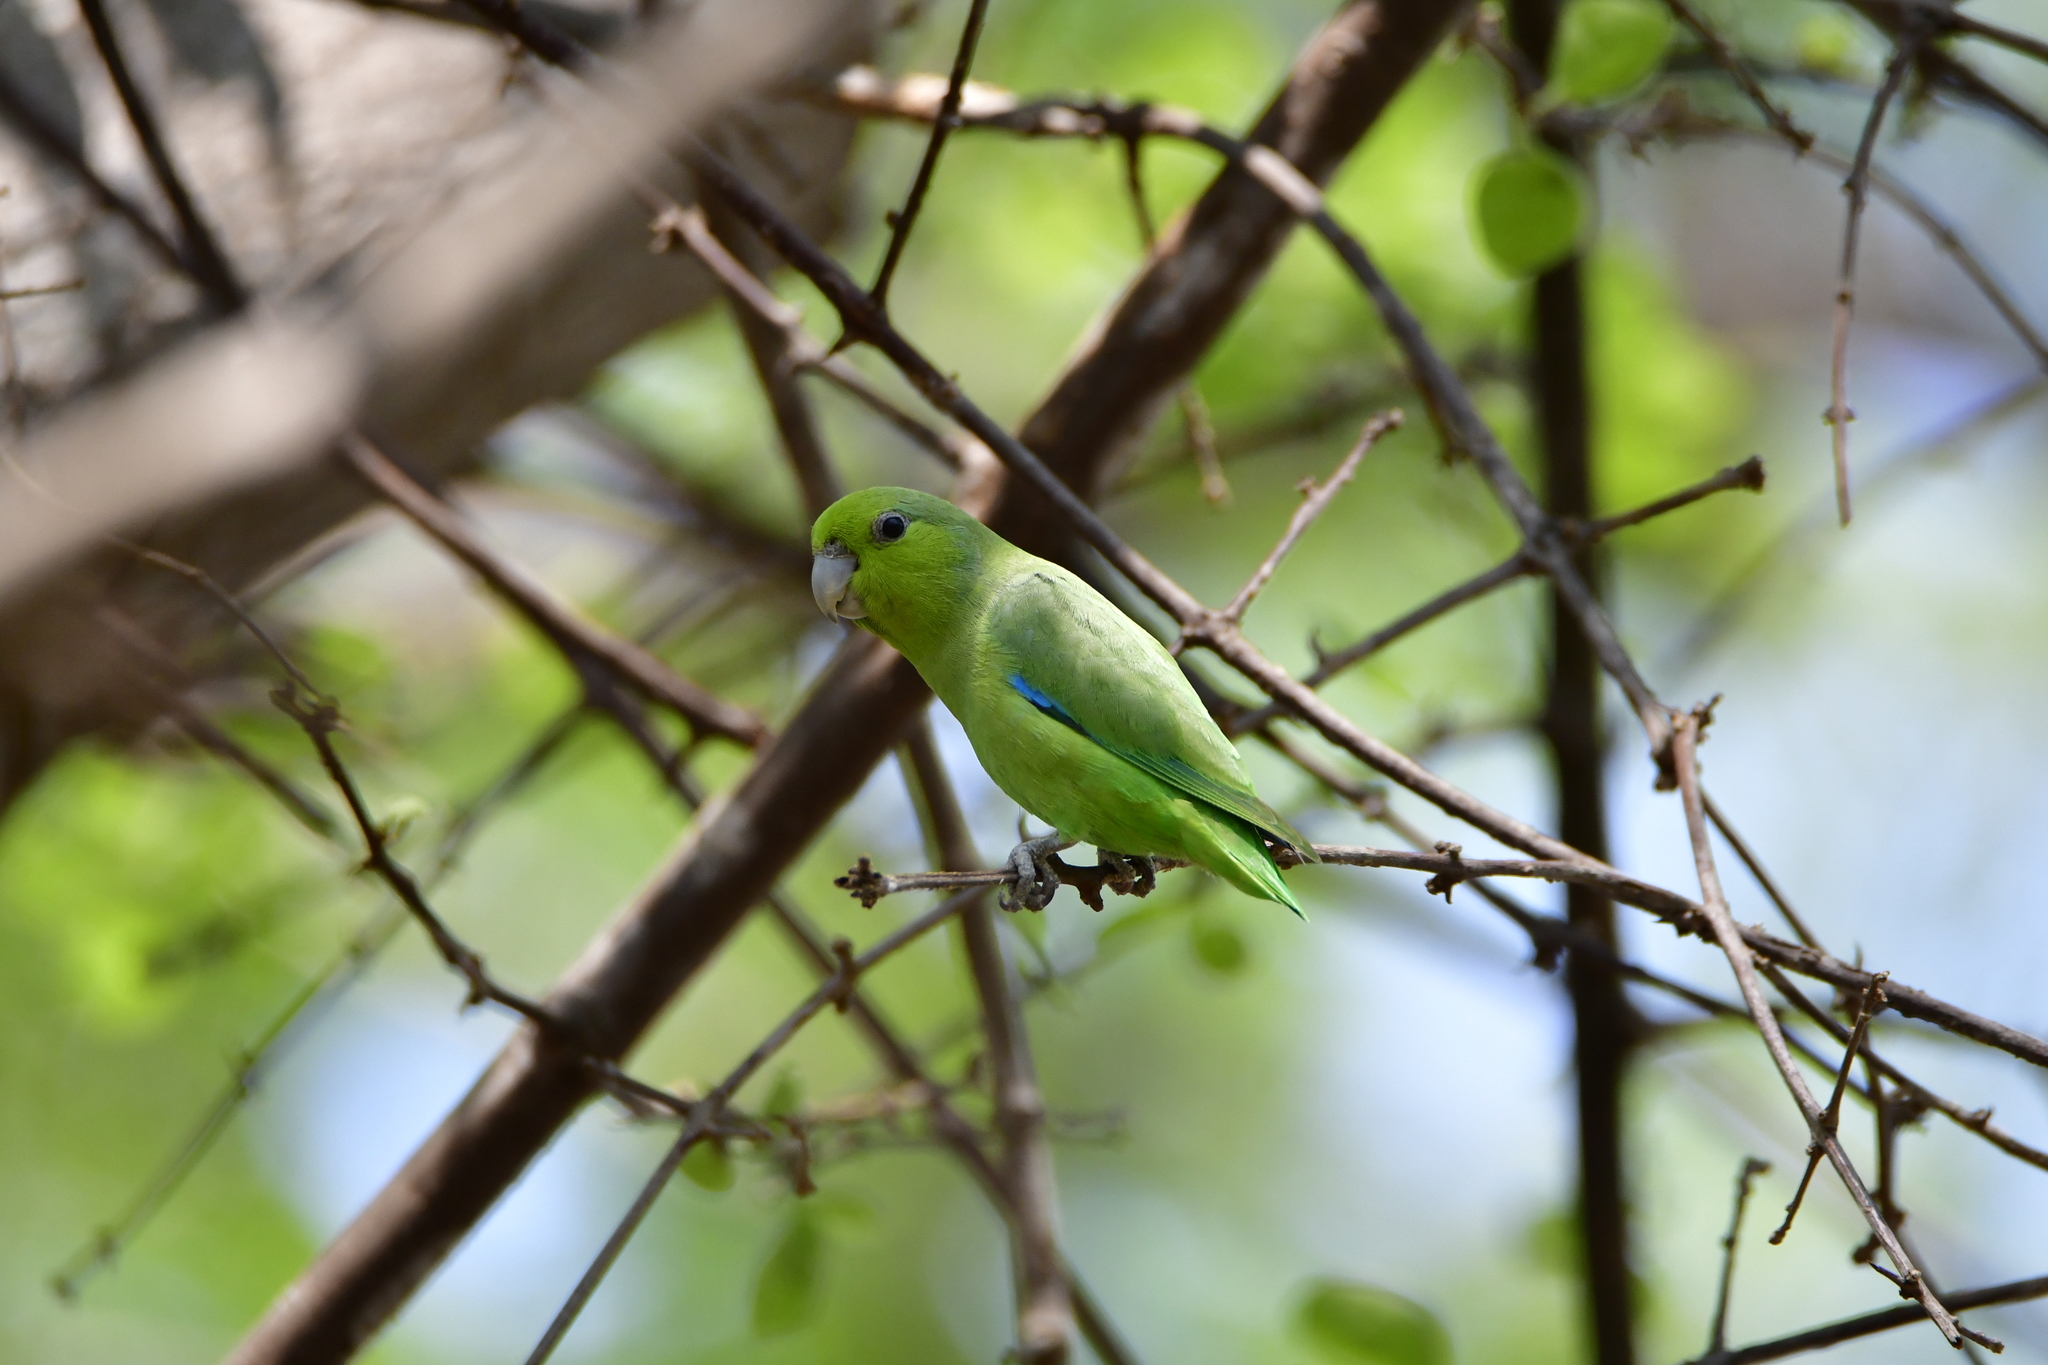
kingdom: Animalia
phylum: Chordata
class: Aves
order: Psittaciformes
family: Psittacidae
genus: Forpus
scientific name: Forpus cyanopygius
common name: Mexican parrotlet
